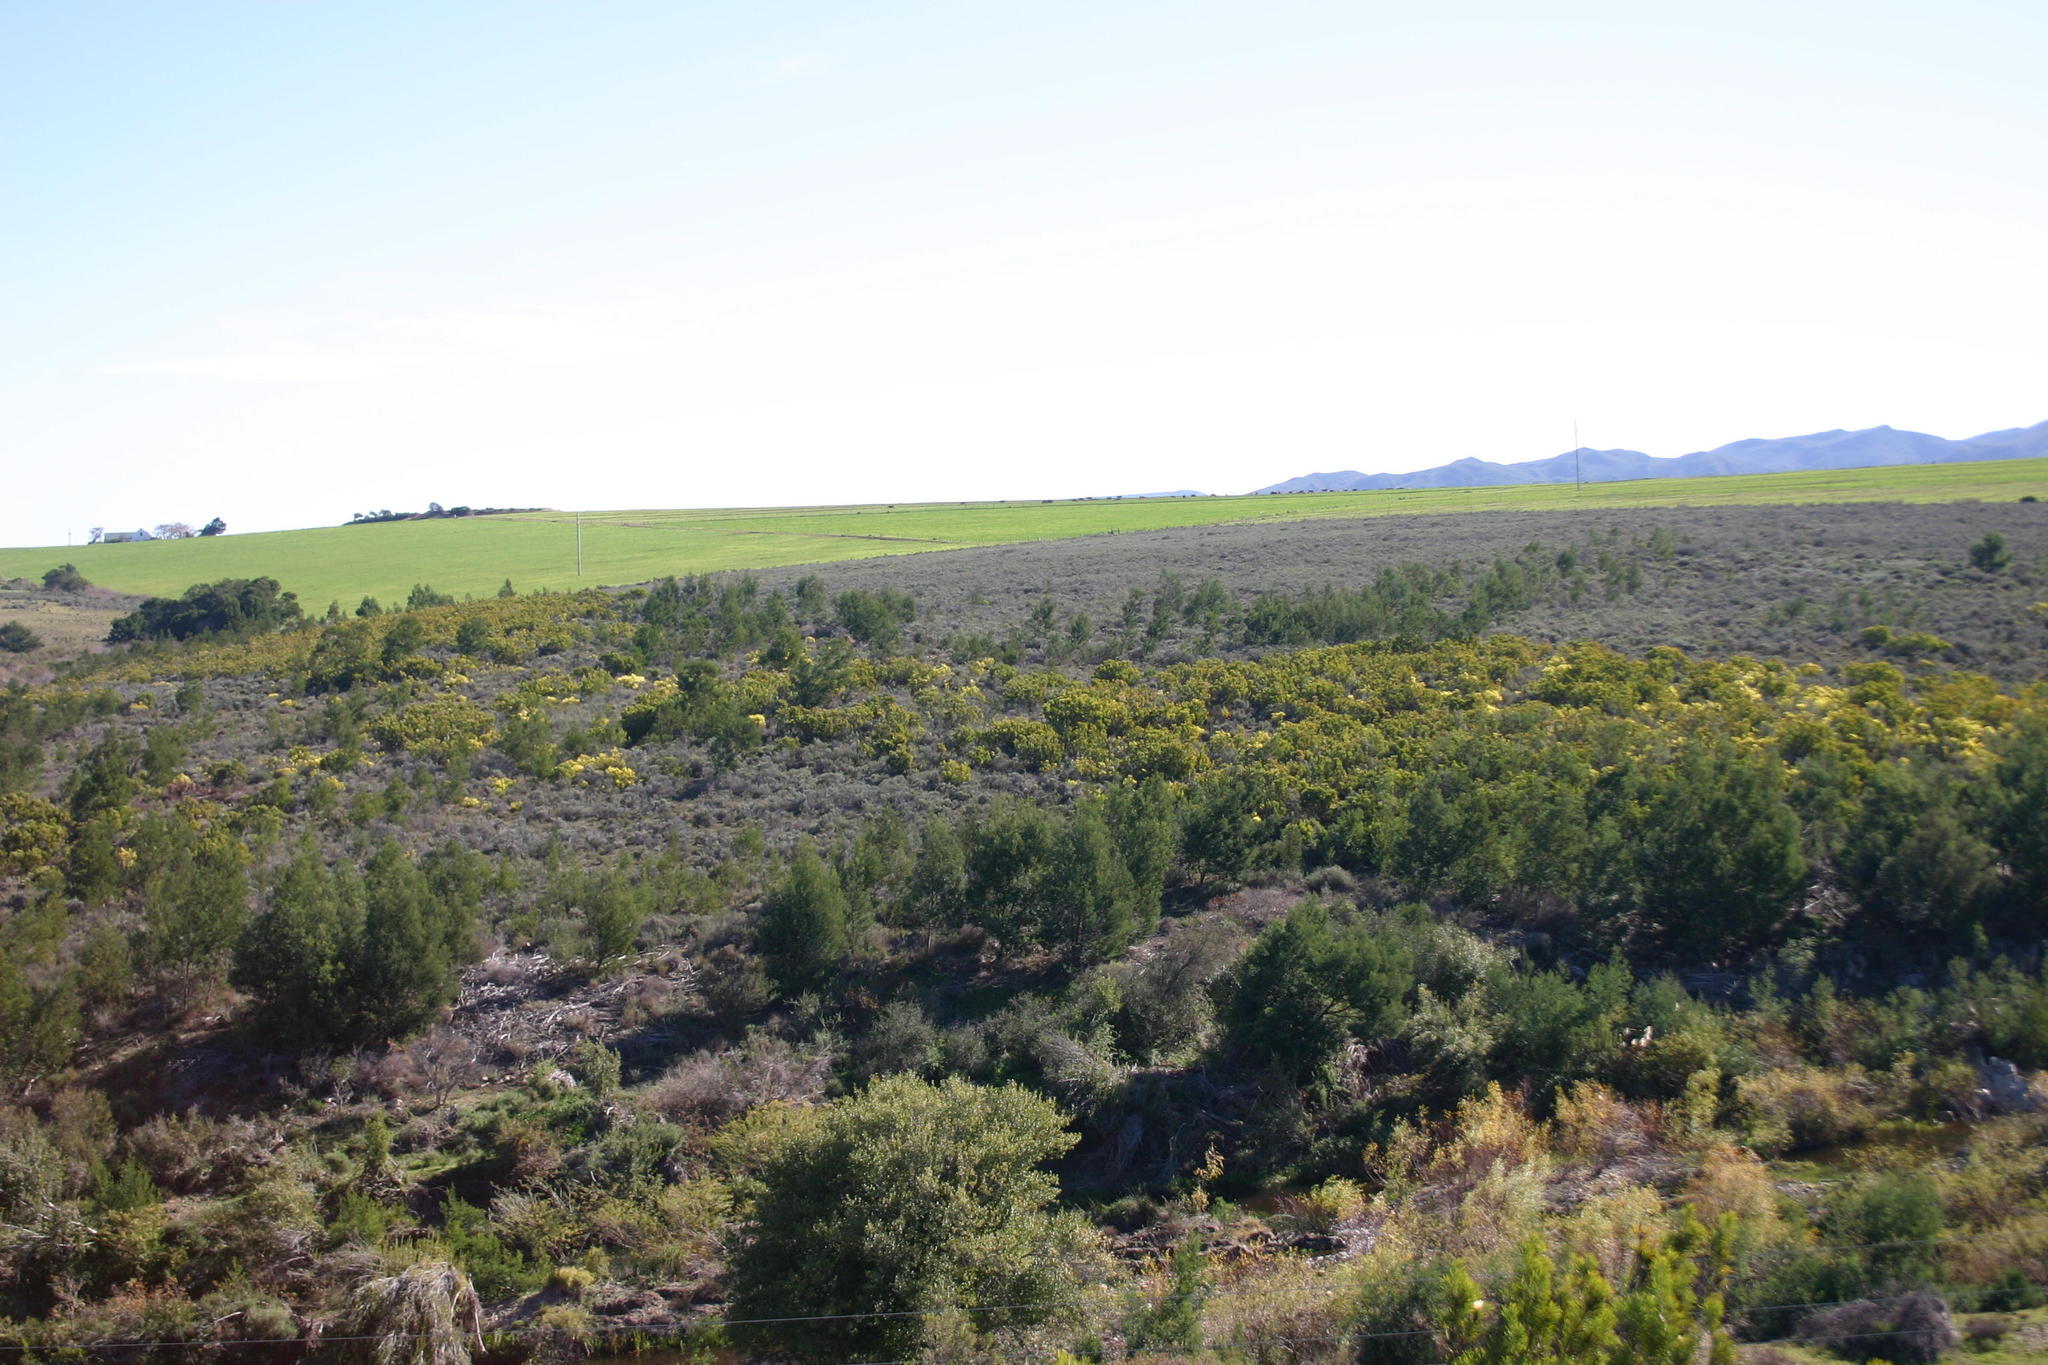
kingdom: Plantae
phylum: Tracheophyta
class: Magnoliopsida
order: Fabales
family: Fabaceae
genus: Acacia
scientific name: Acacia mearnsii
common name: Black wattle
